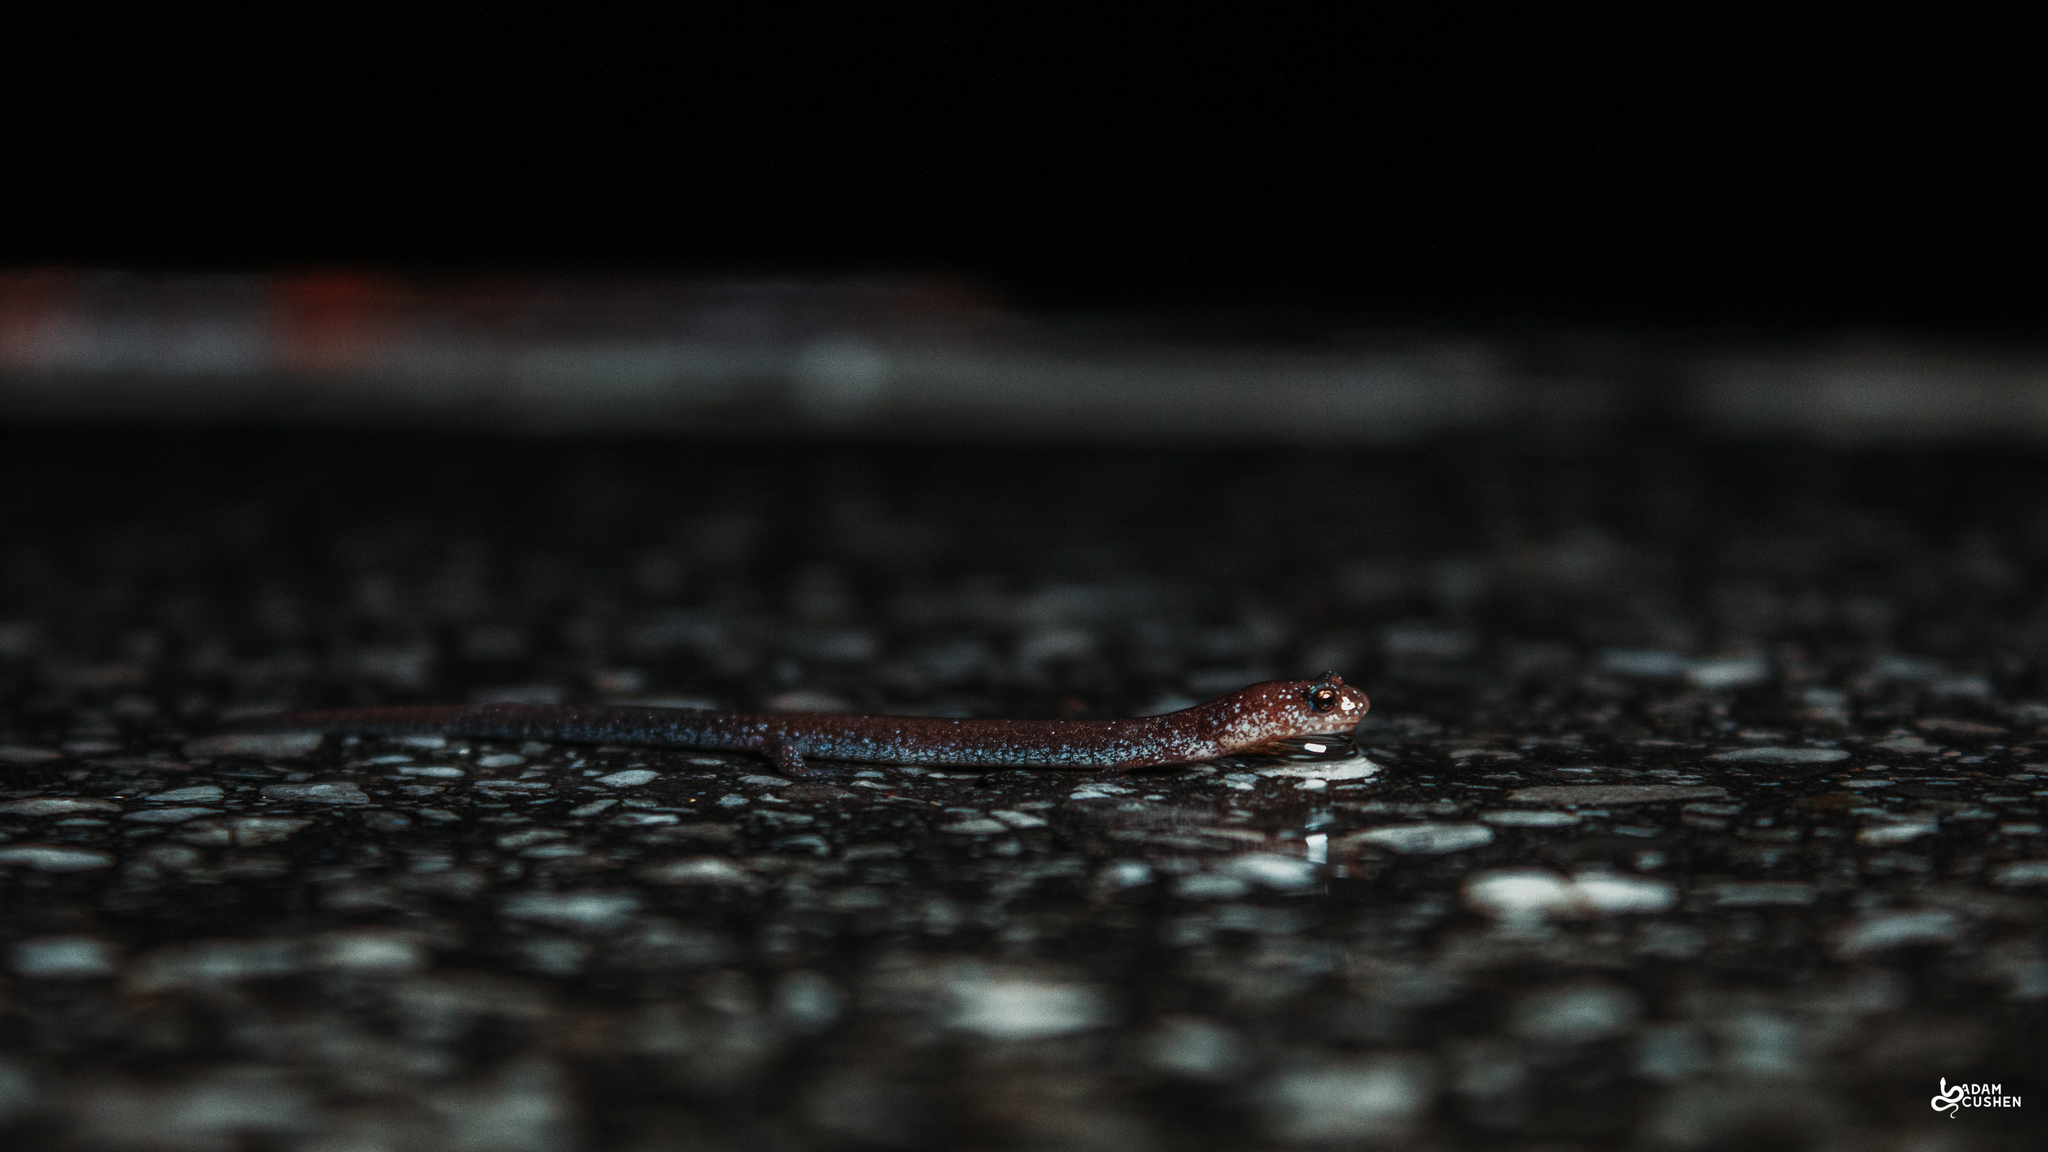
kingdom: Animalia
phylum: Chordata
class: Amphibia
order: Caudata
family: Plethodontidae
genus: Plethodon
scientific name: Plethodon cinereus
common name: Redback salamander
